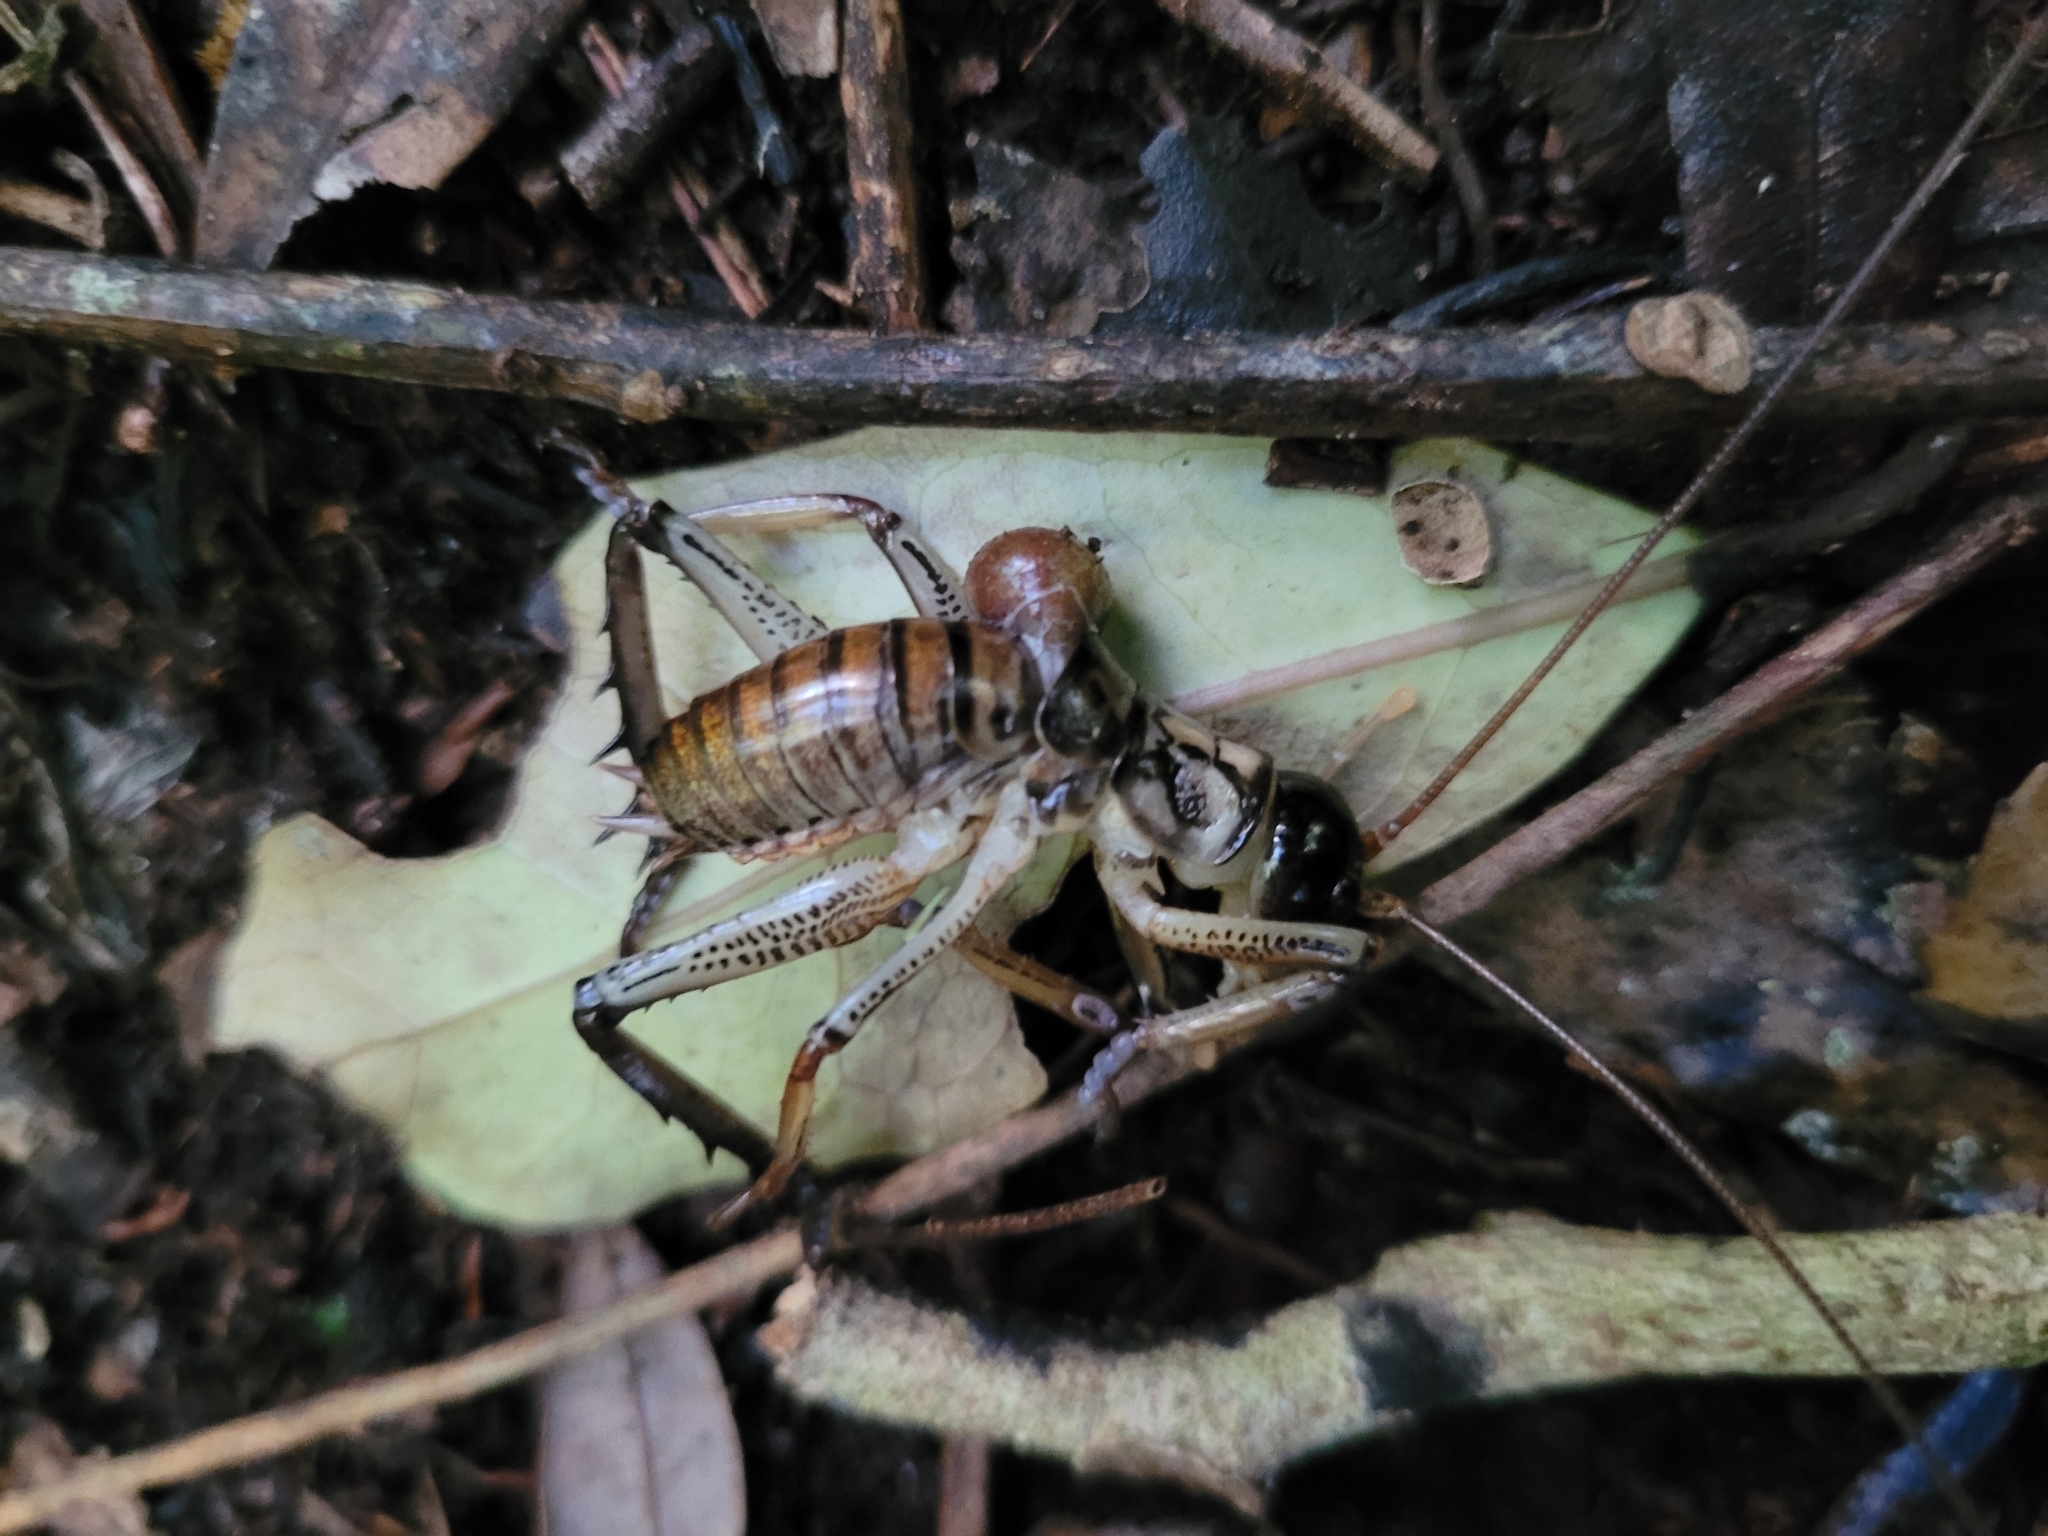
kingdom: Animalia
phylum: Arthropoda
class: Insecta
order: Orthoptera
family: Anostostomatidae
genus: Hemideina
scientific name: Hemideina thoracica
